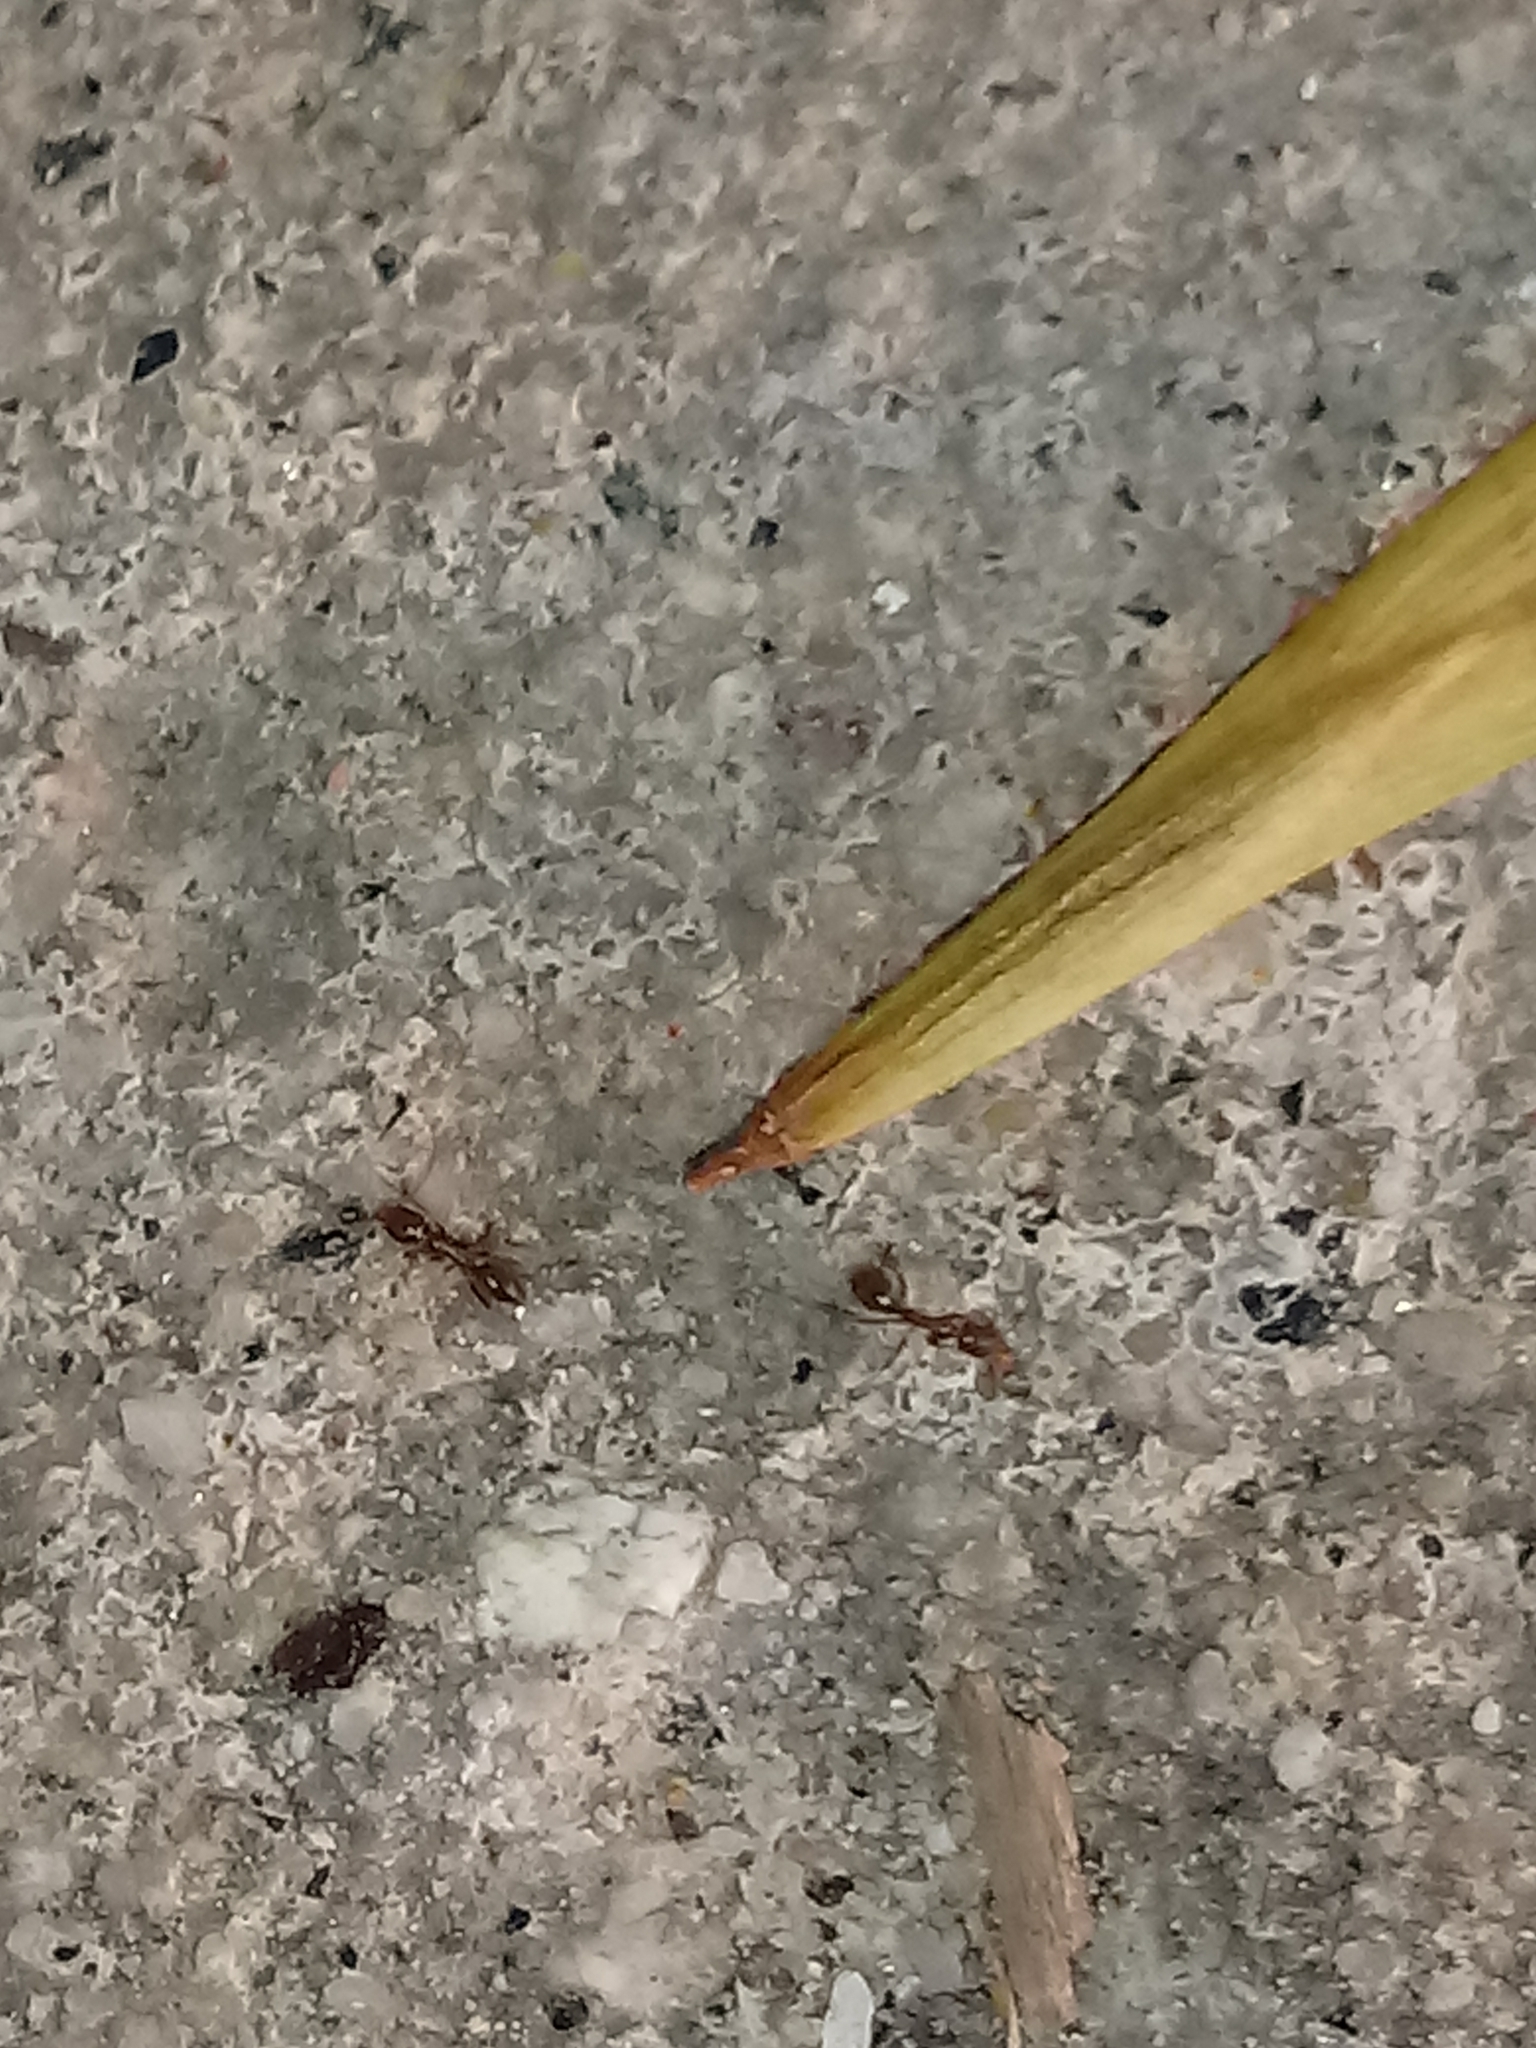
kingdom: Animalia
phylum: Arthropoda
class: Insecta
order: Hymenoptera
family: Formicidae
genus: Linepithema
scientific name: Linepithema humile
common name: Argentine ant
